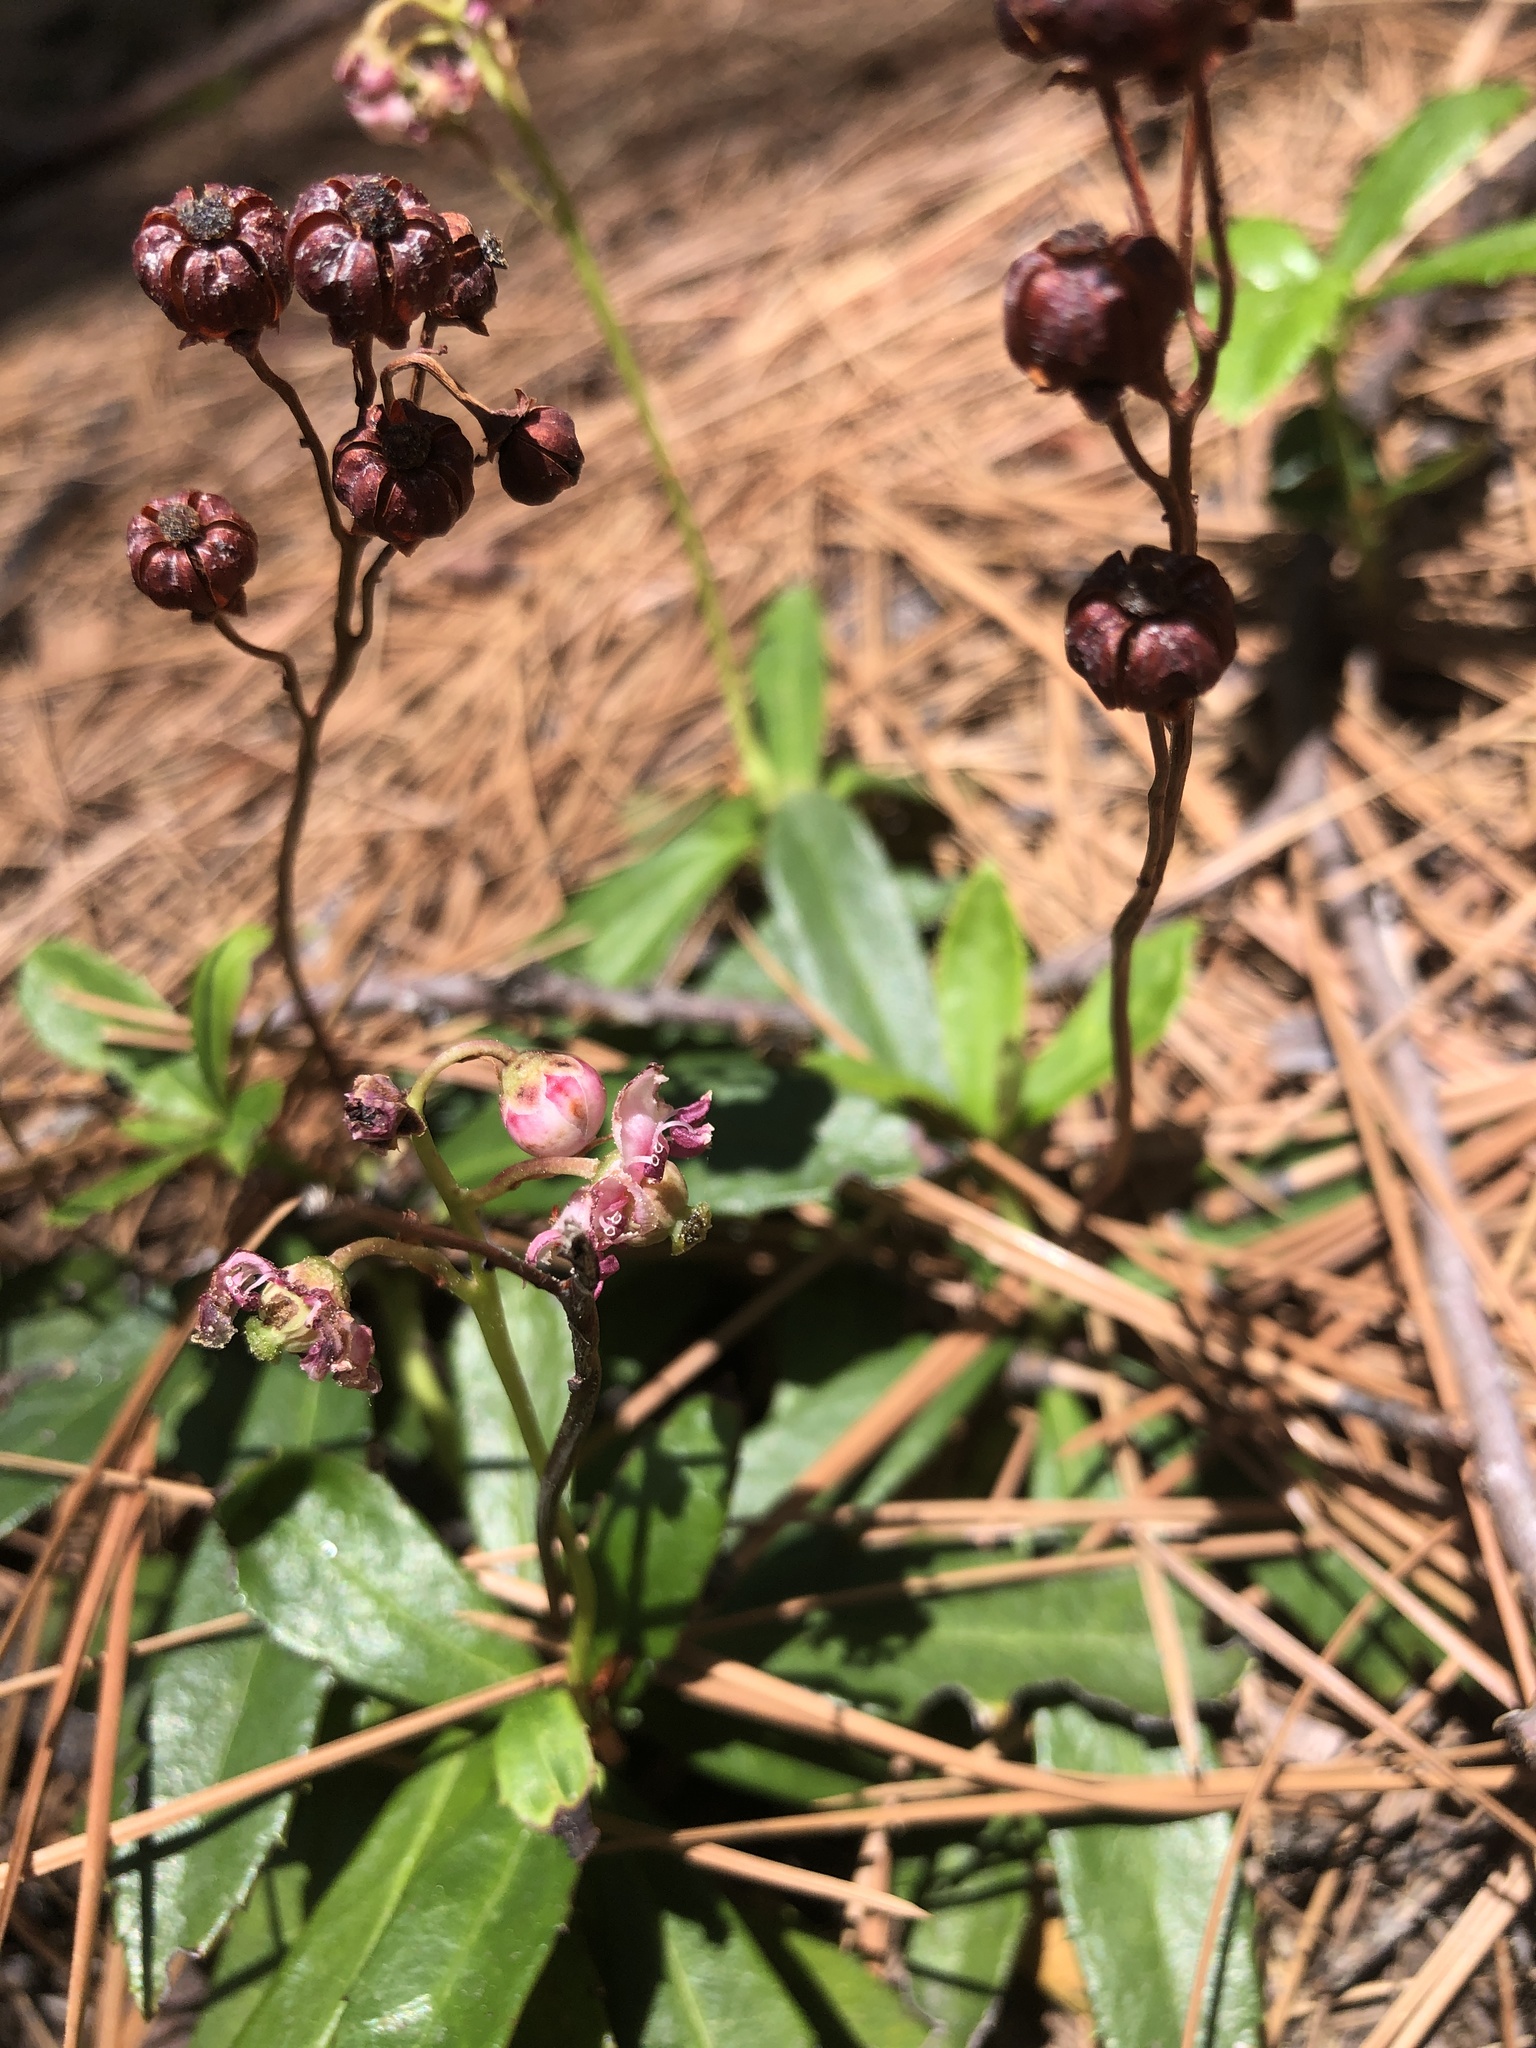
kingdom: Plantae
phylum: Tracheophyta
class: Magnoliopsida
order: Ericales
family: Ericaceae
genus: Chimaphila
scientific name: Chimaphila umbellata
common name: Pipsissewa
